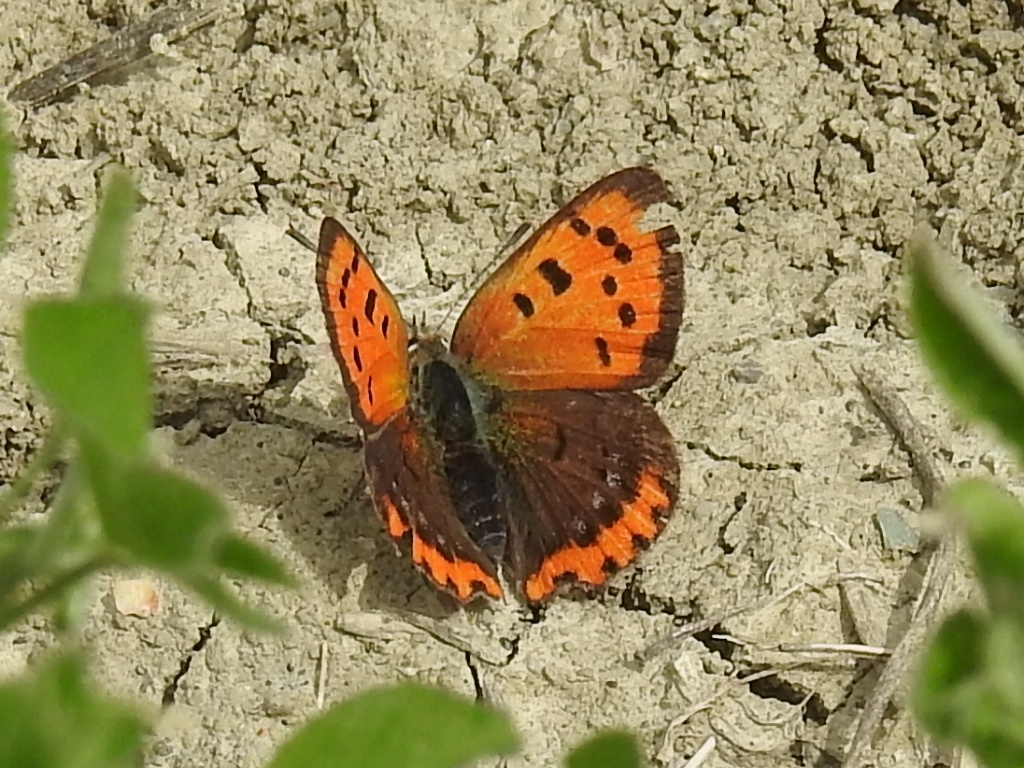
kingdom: Animalia
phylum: Arthropoda
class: Insecta
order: Lepidoptera
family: Lycaenidae
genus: Lycaena
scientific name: Lycaena phlaeas
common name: Small copper
